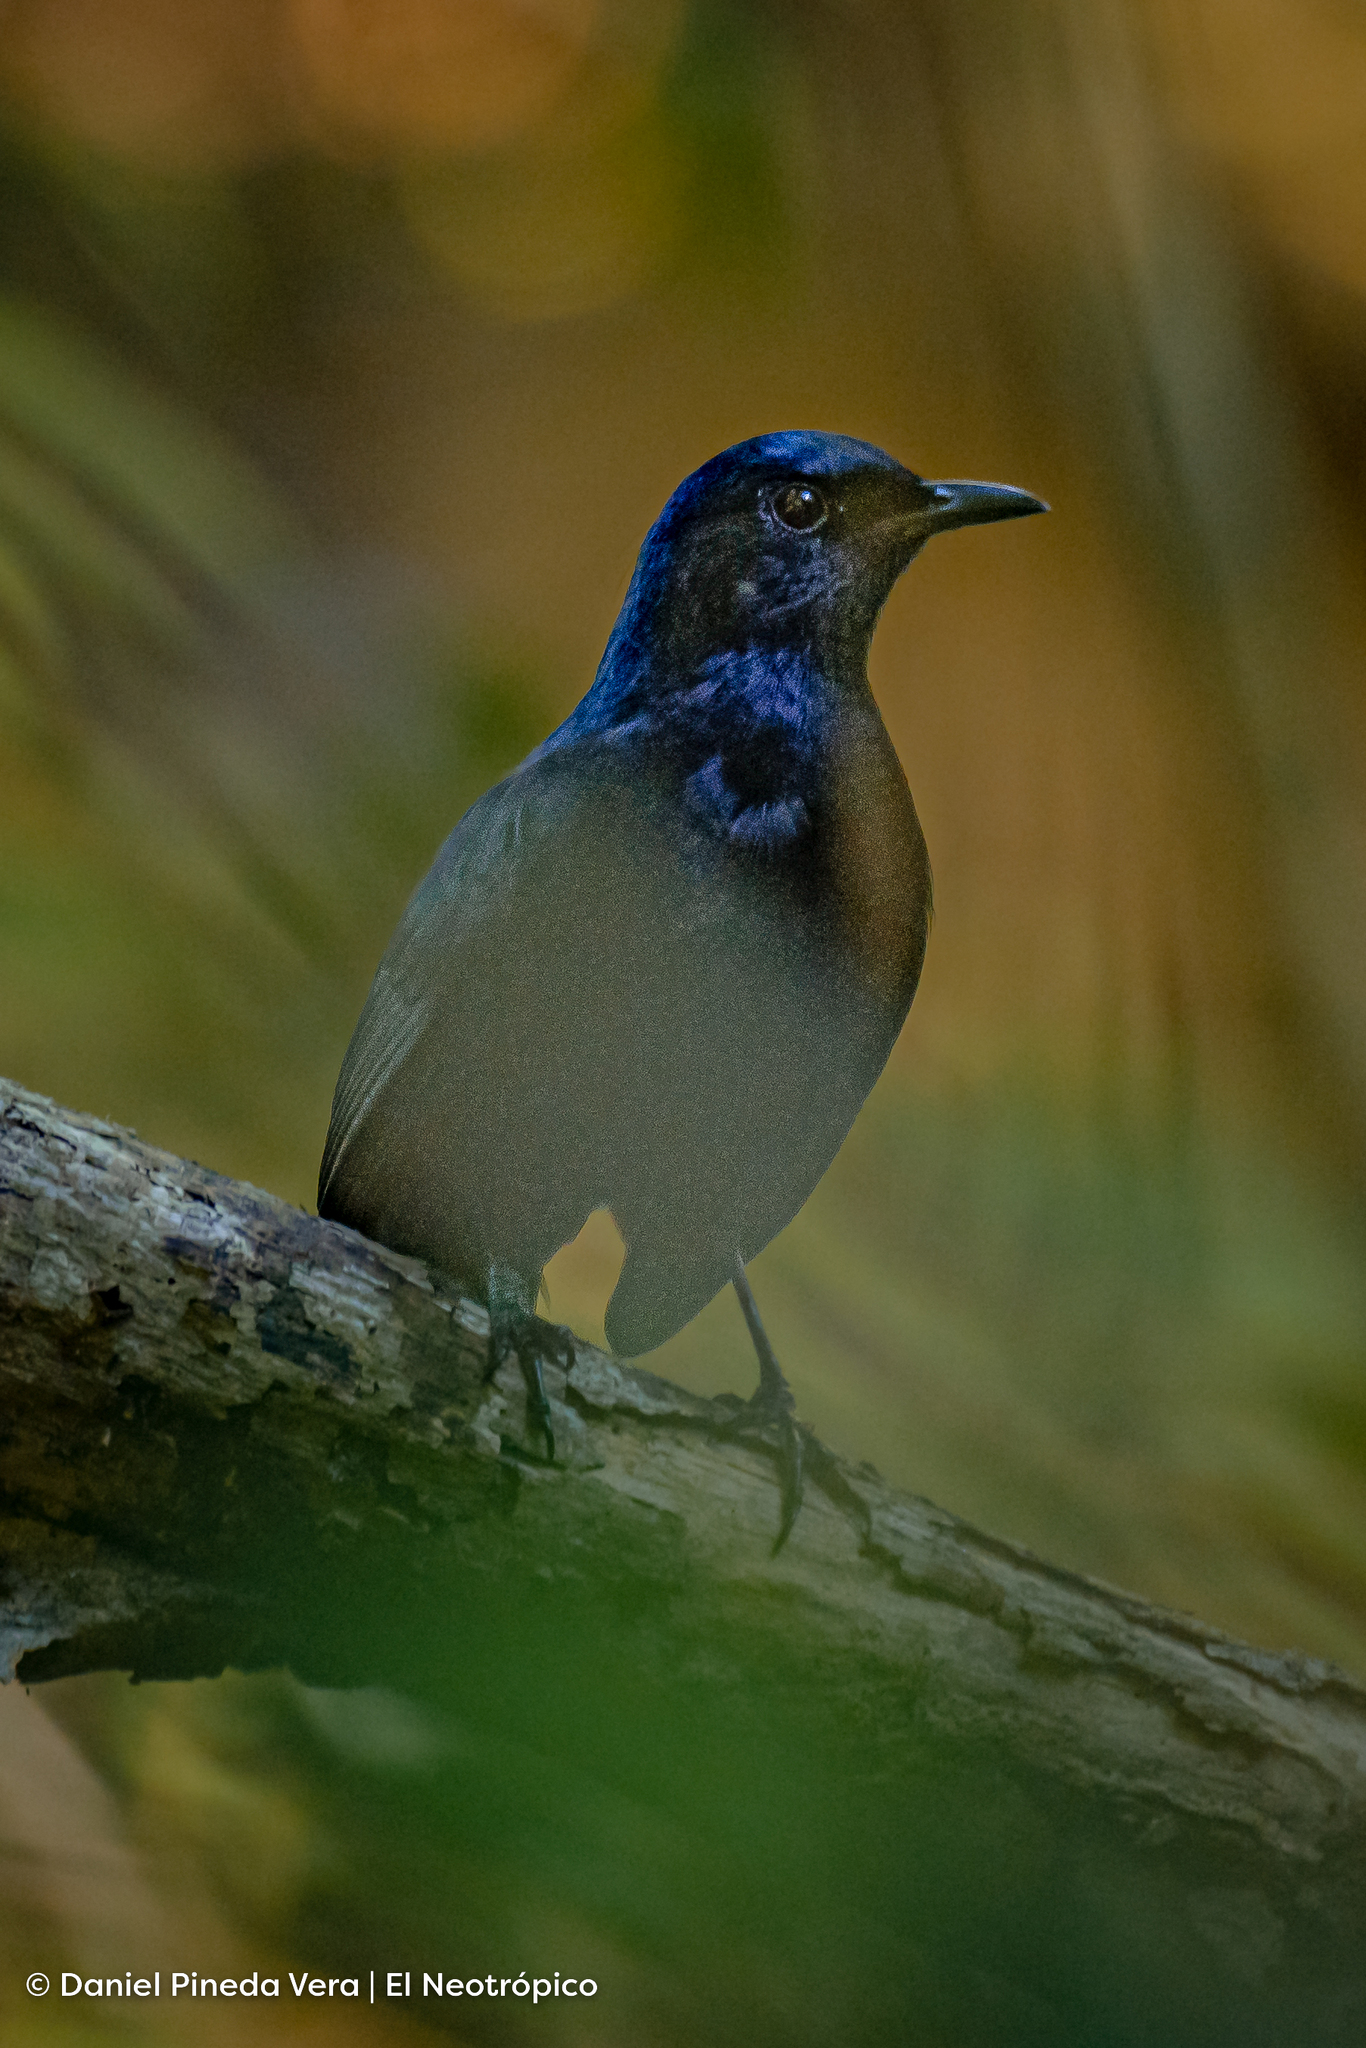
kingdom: Animalia
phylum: Chordata
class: Aves
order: Passeriformes
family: Mimidae
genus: Melanoptila
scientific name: Melanoptila glabrirostris
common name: Black catbird
